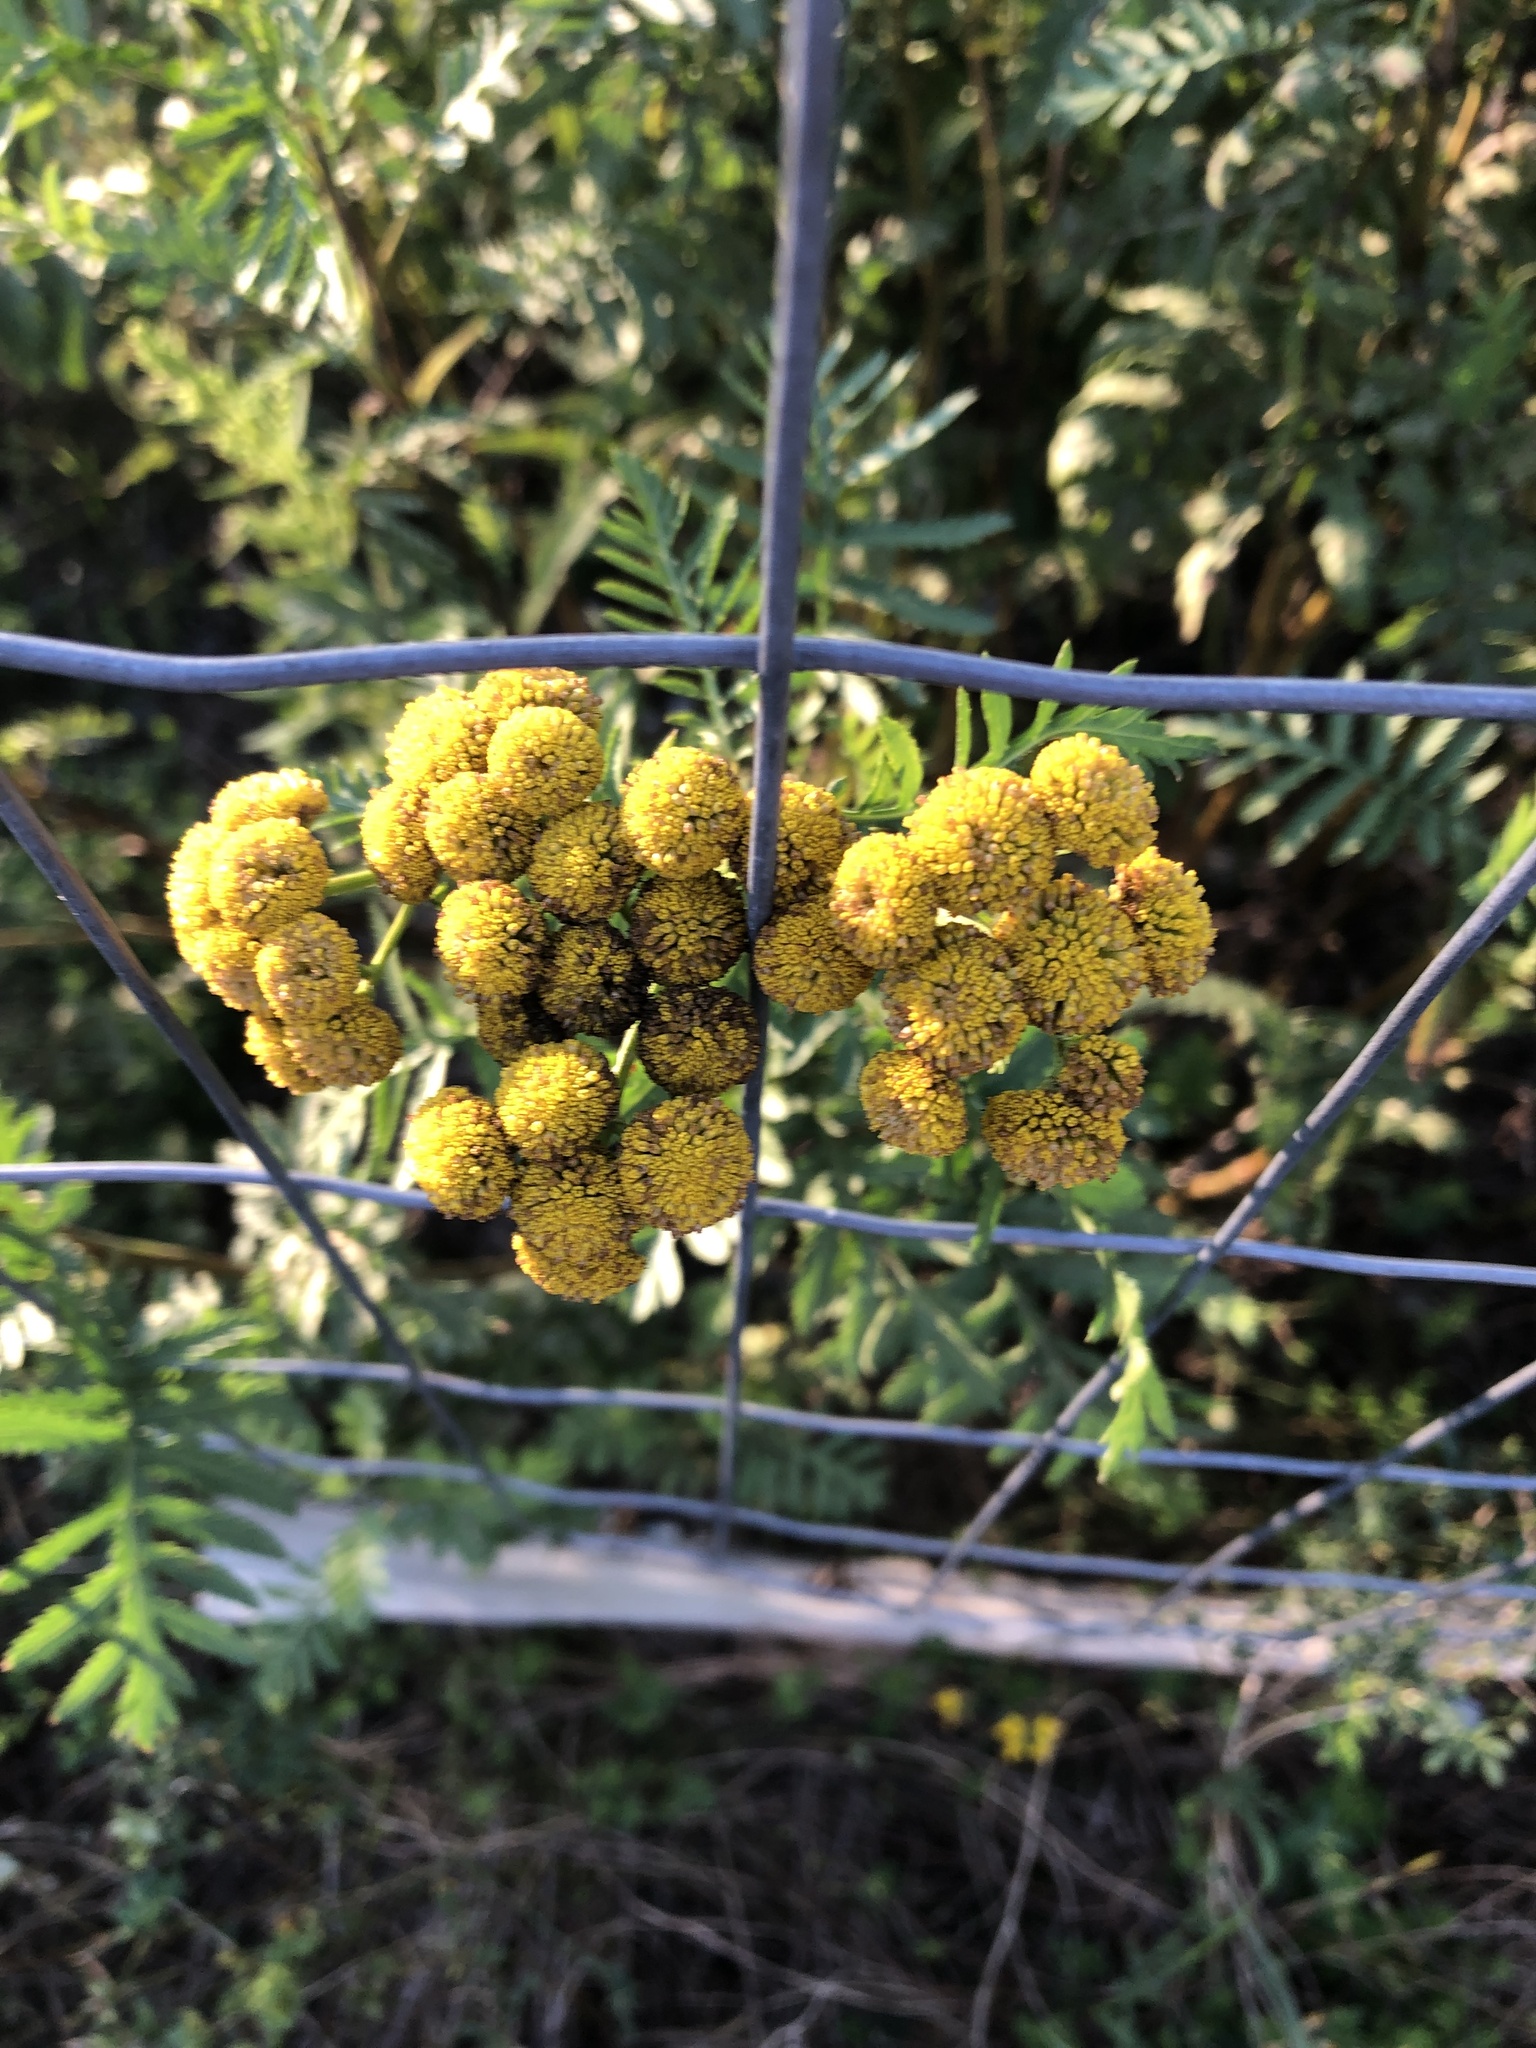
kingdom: Plantae
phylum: Tracheophyta
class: Magnoliopsida
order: Asterales
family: Asteraceae
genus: Tanacetum
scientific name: Tanacetum vulgare
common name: Common tansy
